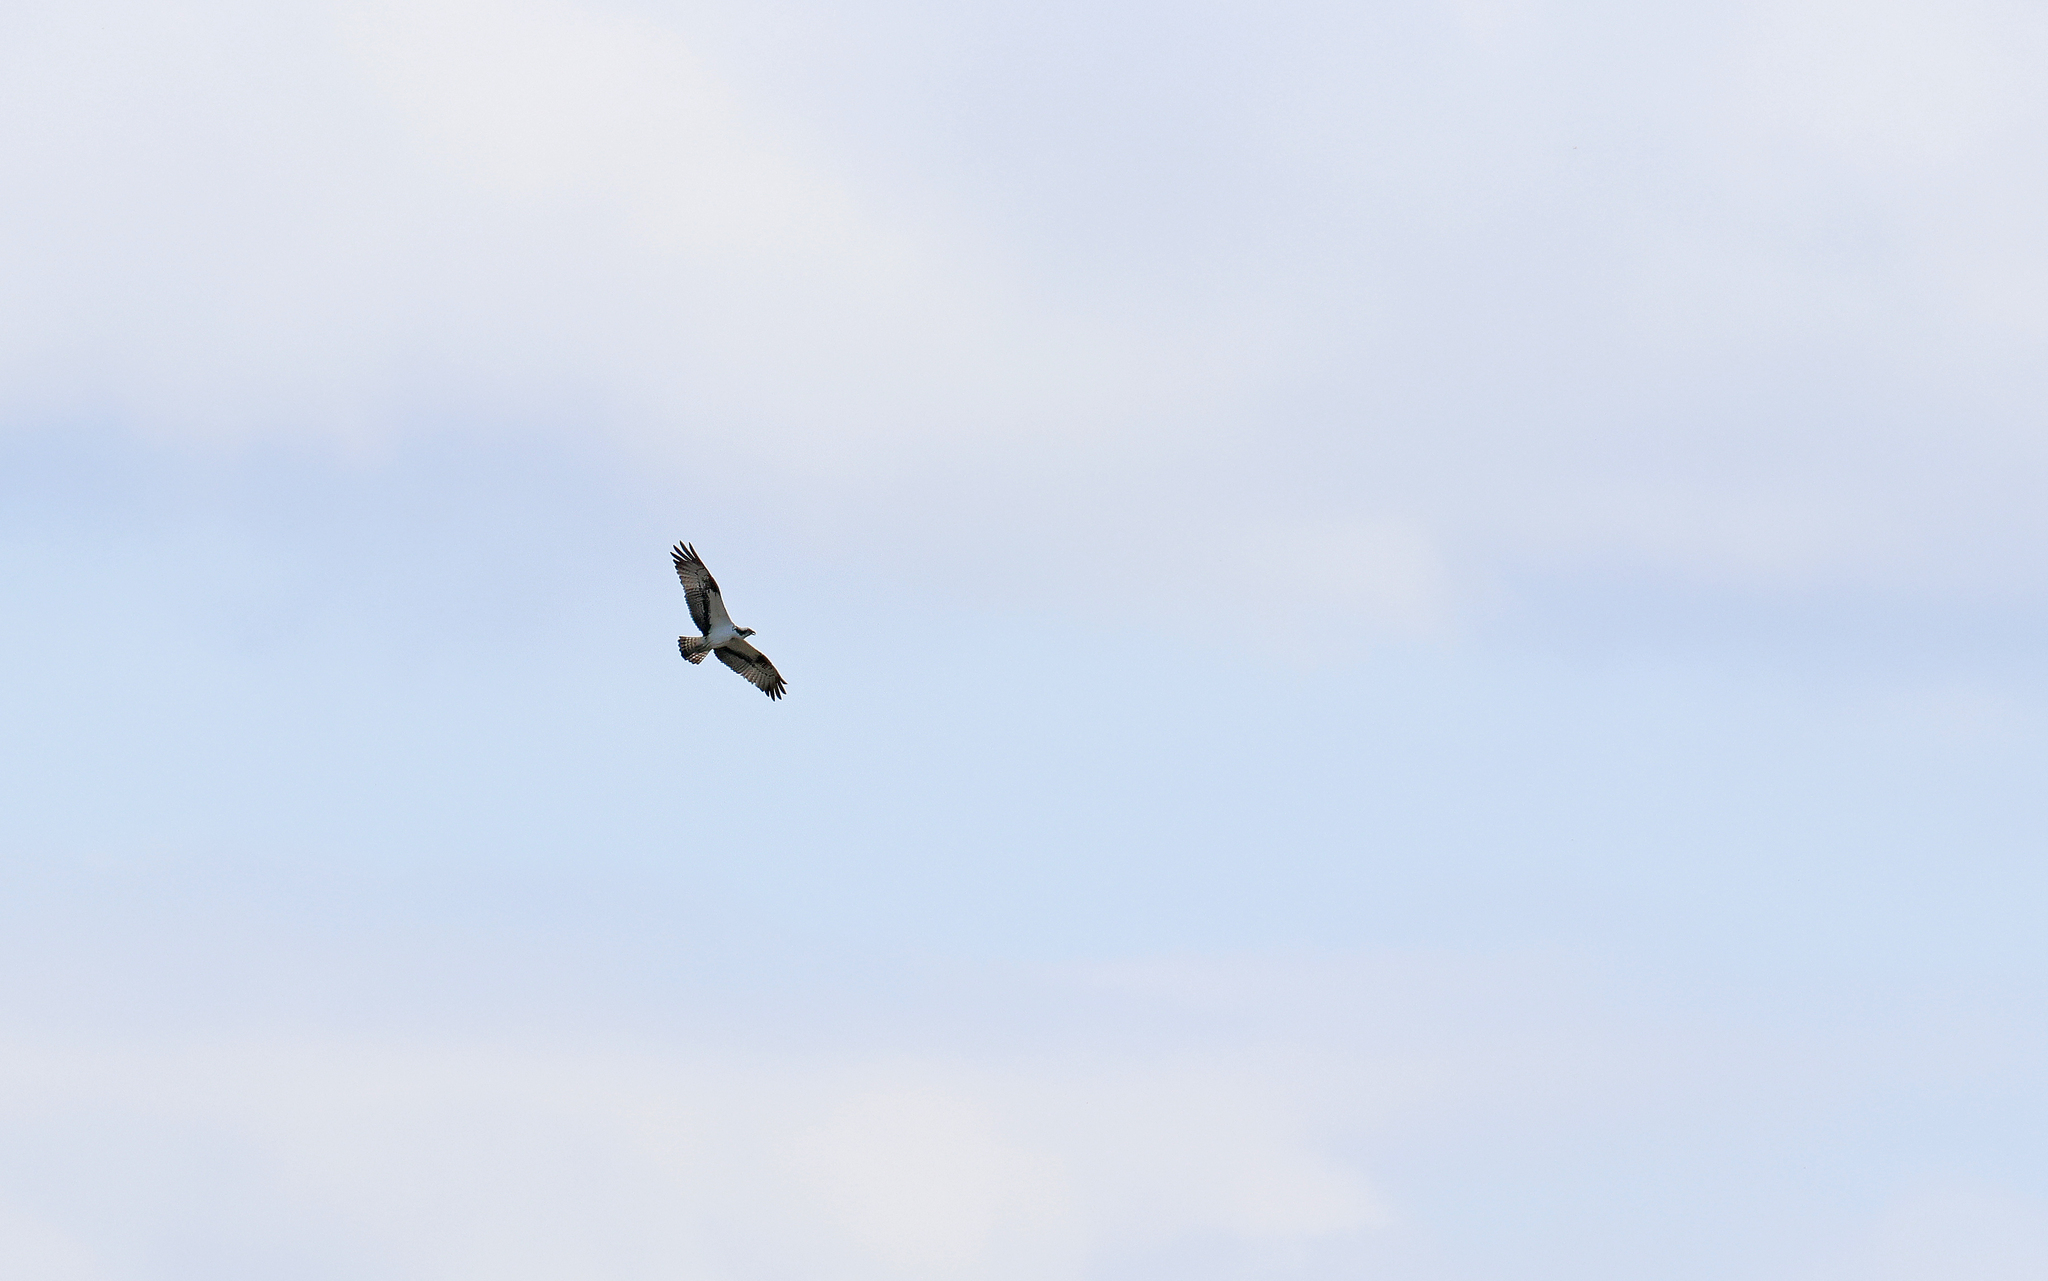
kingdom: Animalia
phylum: Chordata
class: Aves
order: Accipitriformes
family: Pandionidae
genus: Pandion
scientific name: Pandion haliaetus
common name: Osprey
